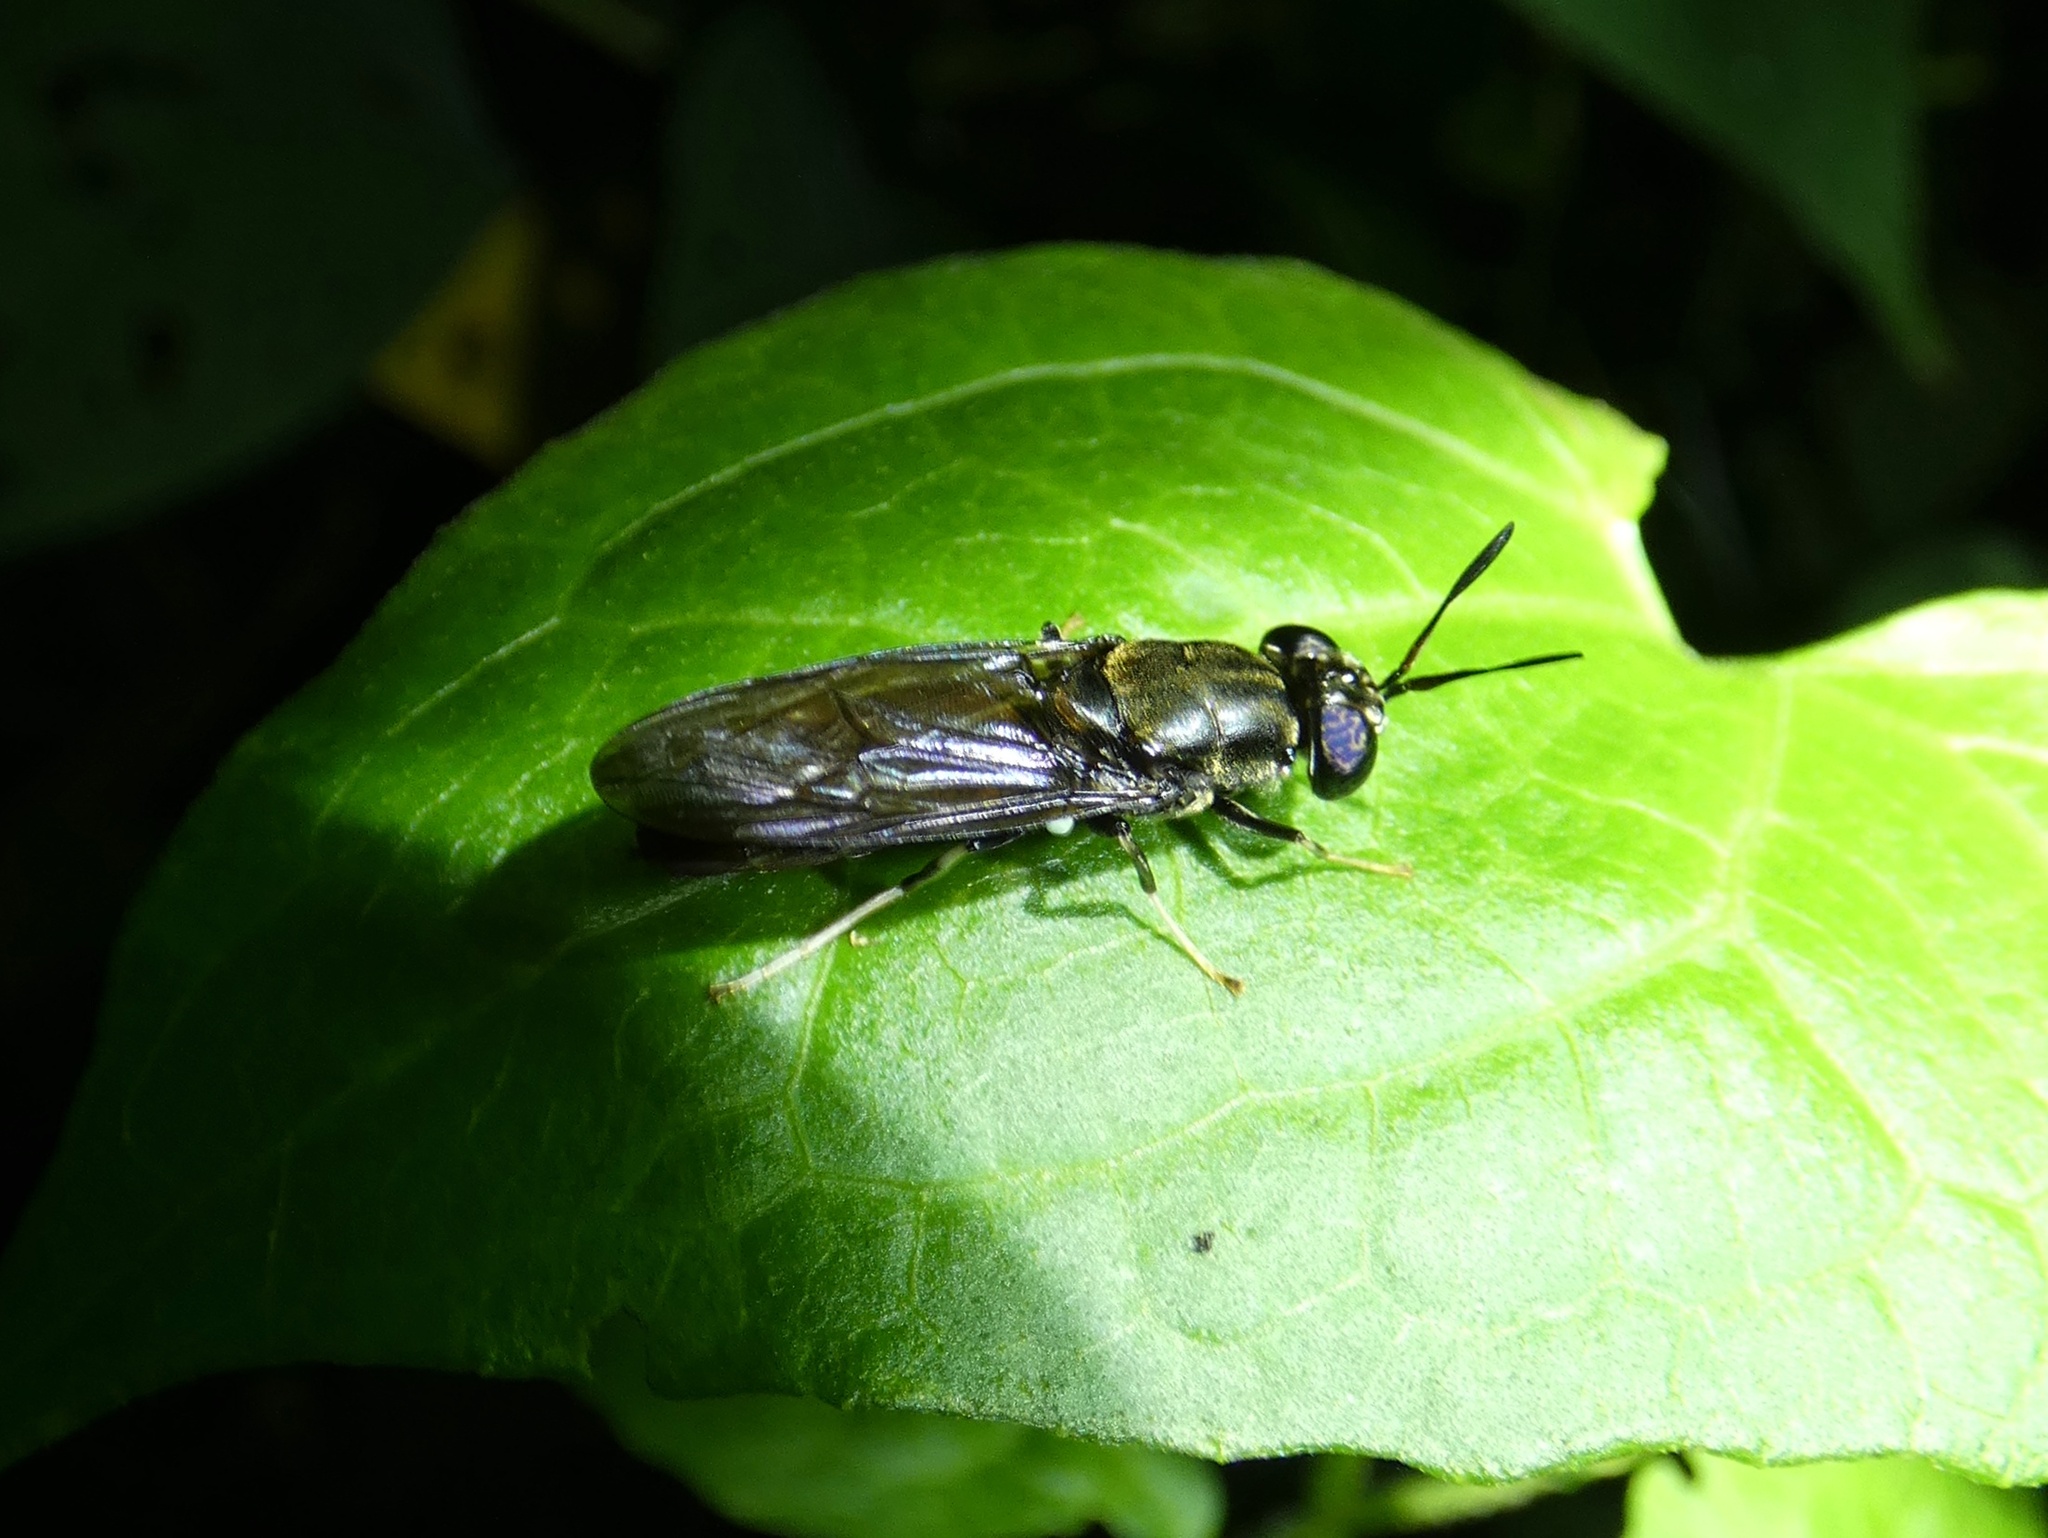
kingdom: Animalia
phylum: Arthropoda
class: Insecta
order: Diptera
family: Stratiomyidae
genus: Hermetia
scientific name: Hermetia illucens
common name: Black soldier fly
